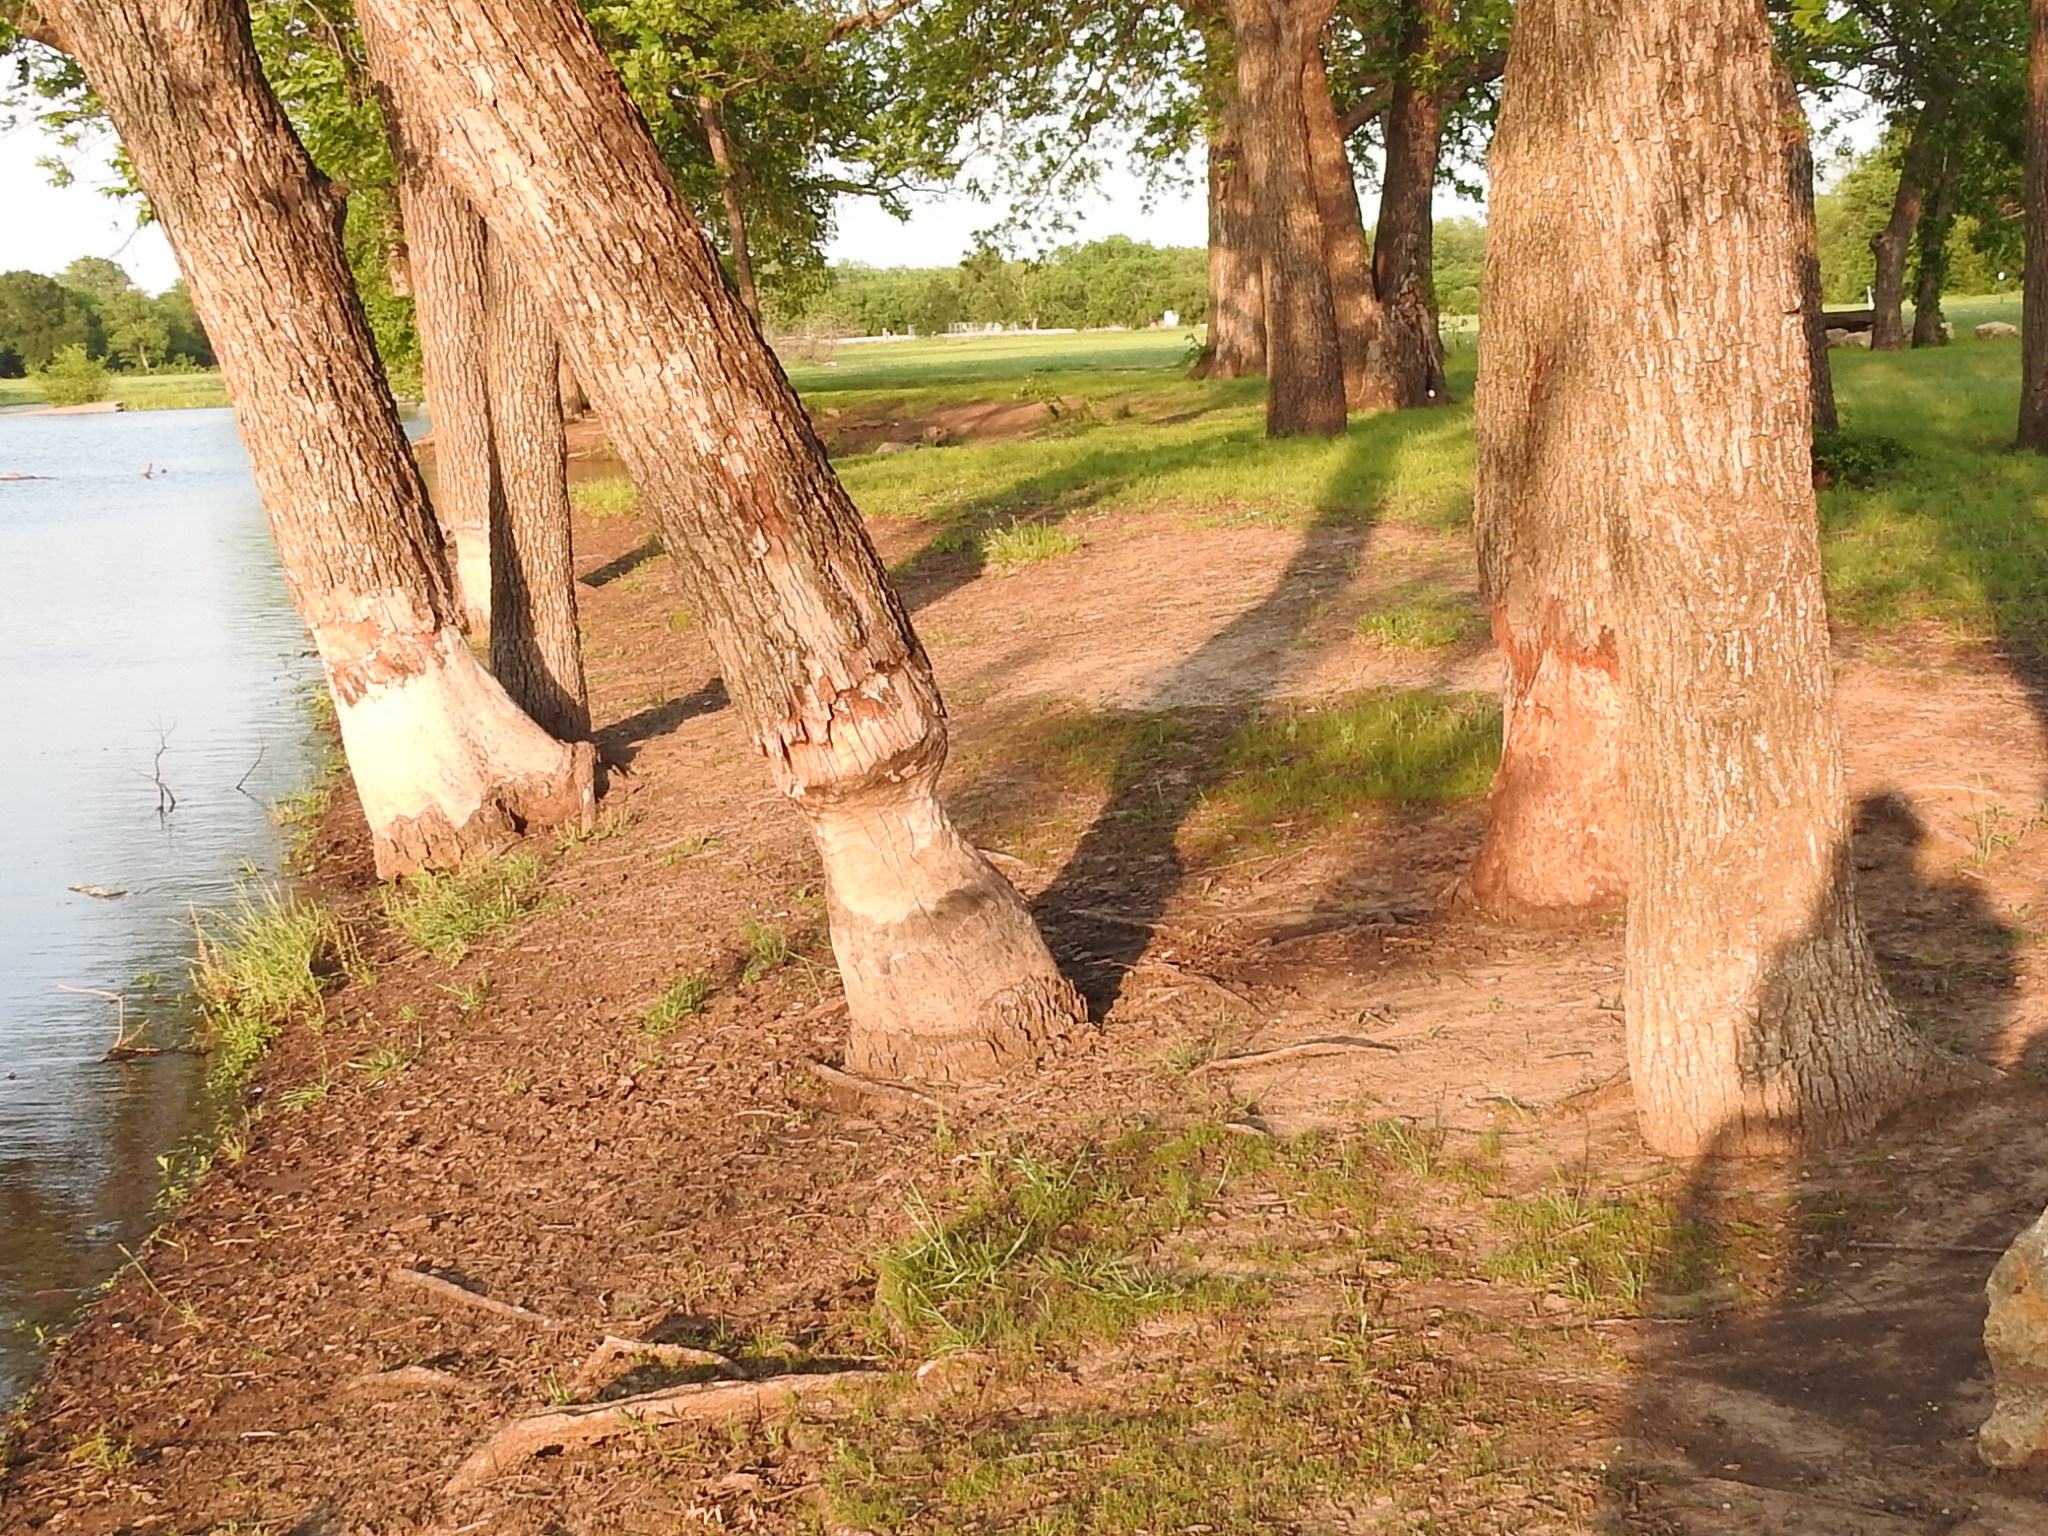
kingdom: Animalia
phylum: Chordata
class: Mammalia
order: Rodentia
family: Castoridae
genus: Castor
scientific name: Castor canadensis
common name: American beaver
